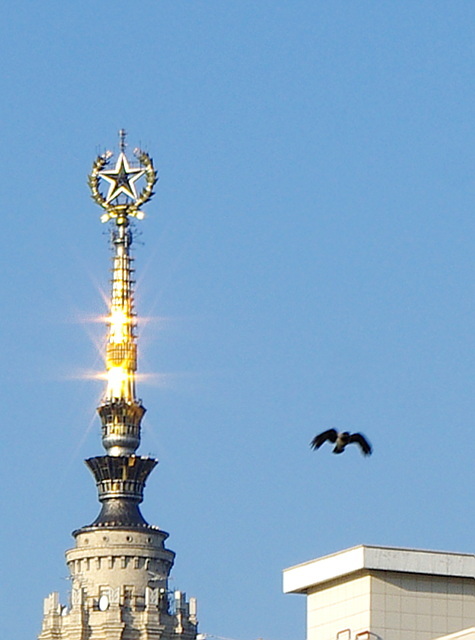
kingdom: Animalia
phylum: Chordata
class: Aves
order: Passeriformes
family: Corvidae
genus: Corvus
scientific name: Corvus cornix
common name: Hooded crow
